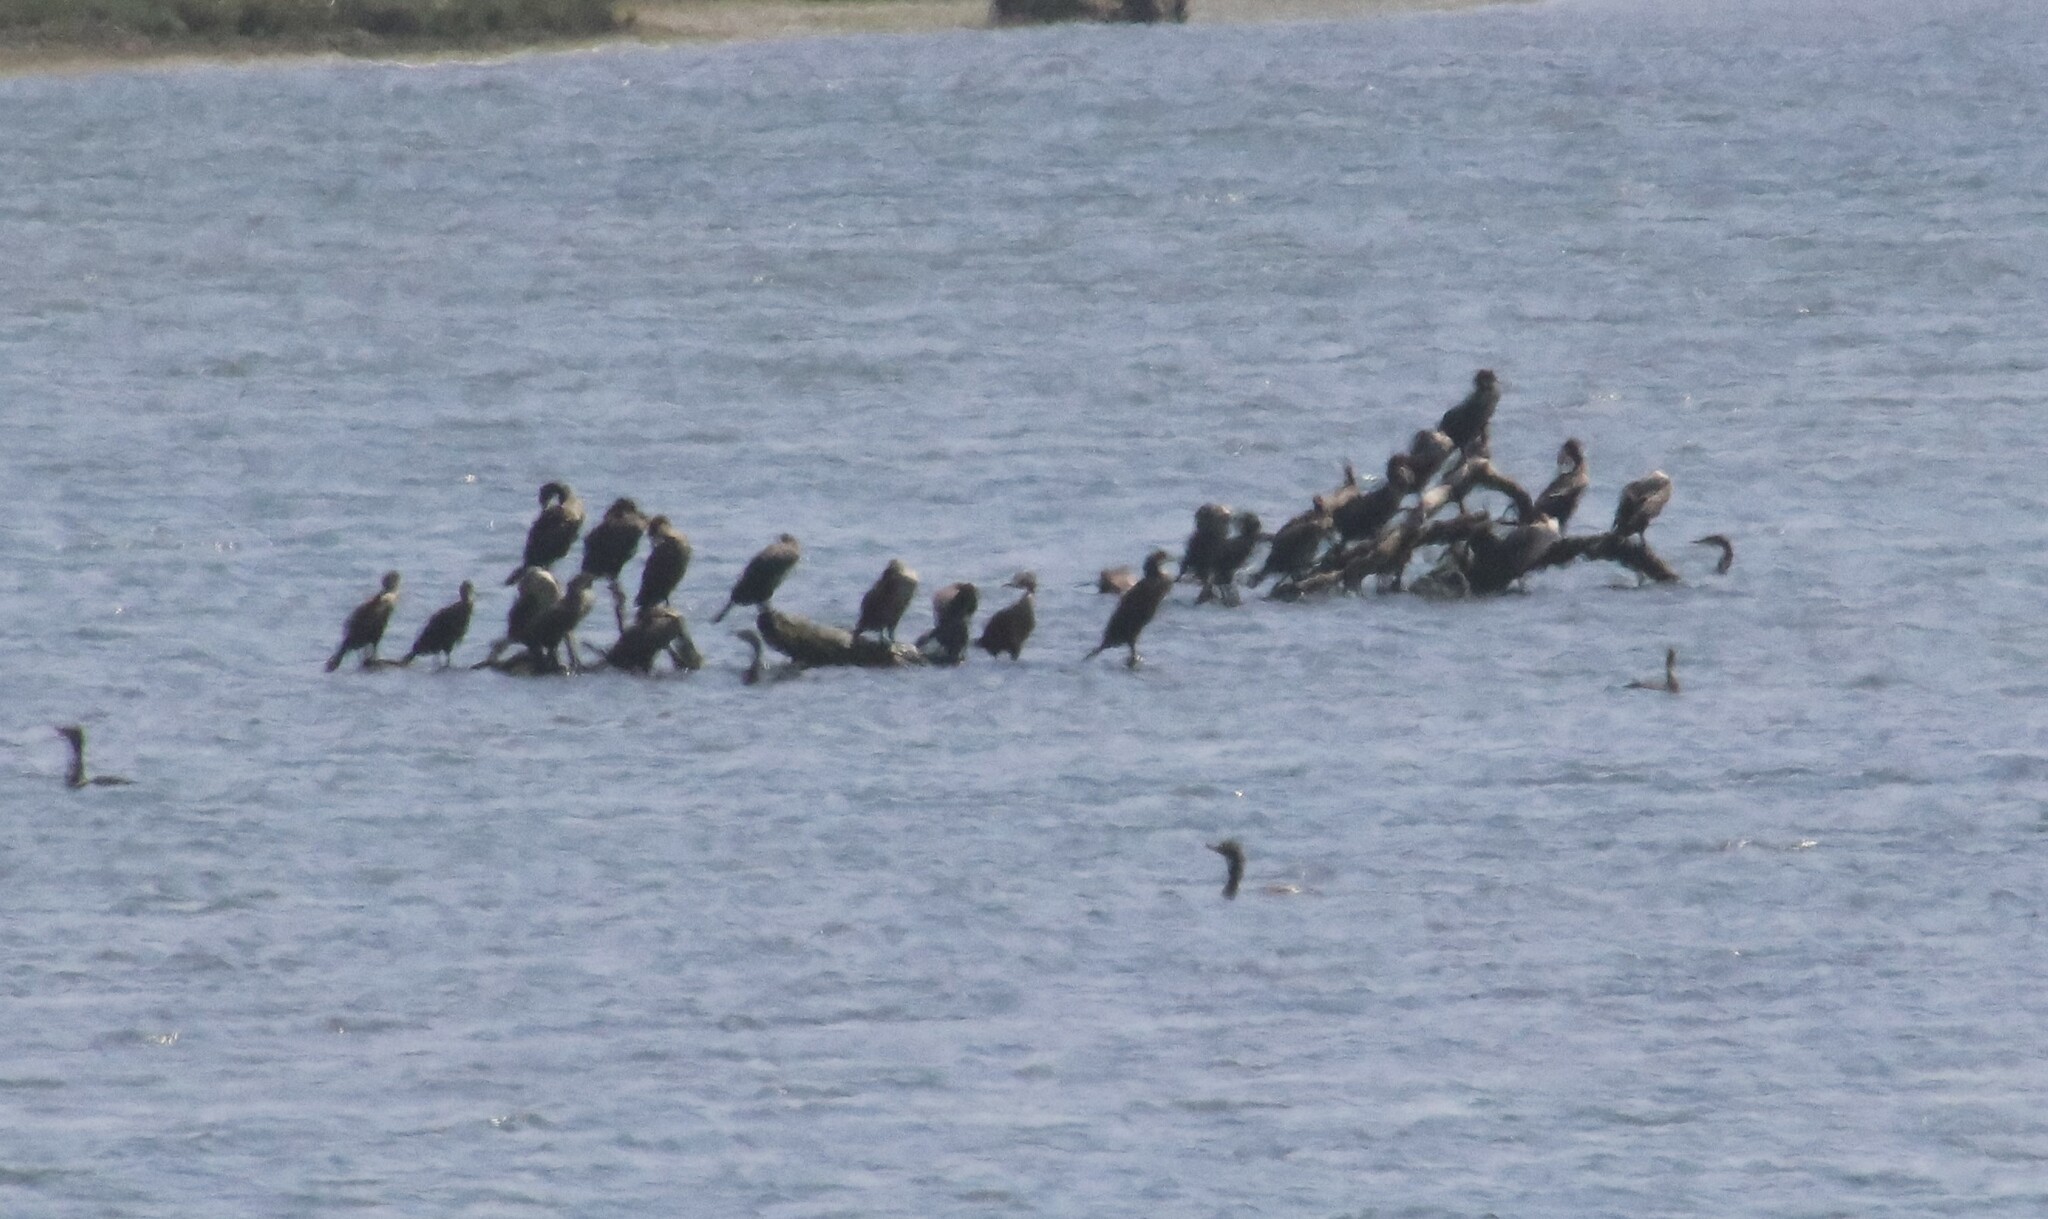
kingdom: Animalia
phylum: Chordata
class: Aves
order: Suliformes
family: Phalacrocoracidae
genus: Phalacrocorax
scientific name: Phalacrocorax auritus
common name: Double-crested cormorant
